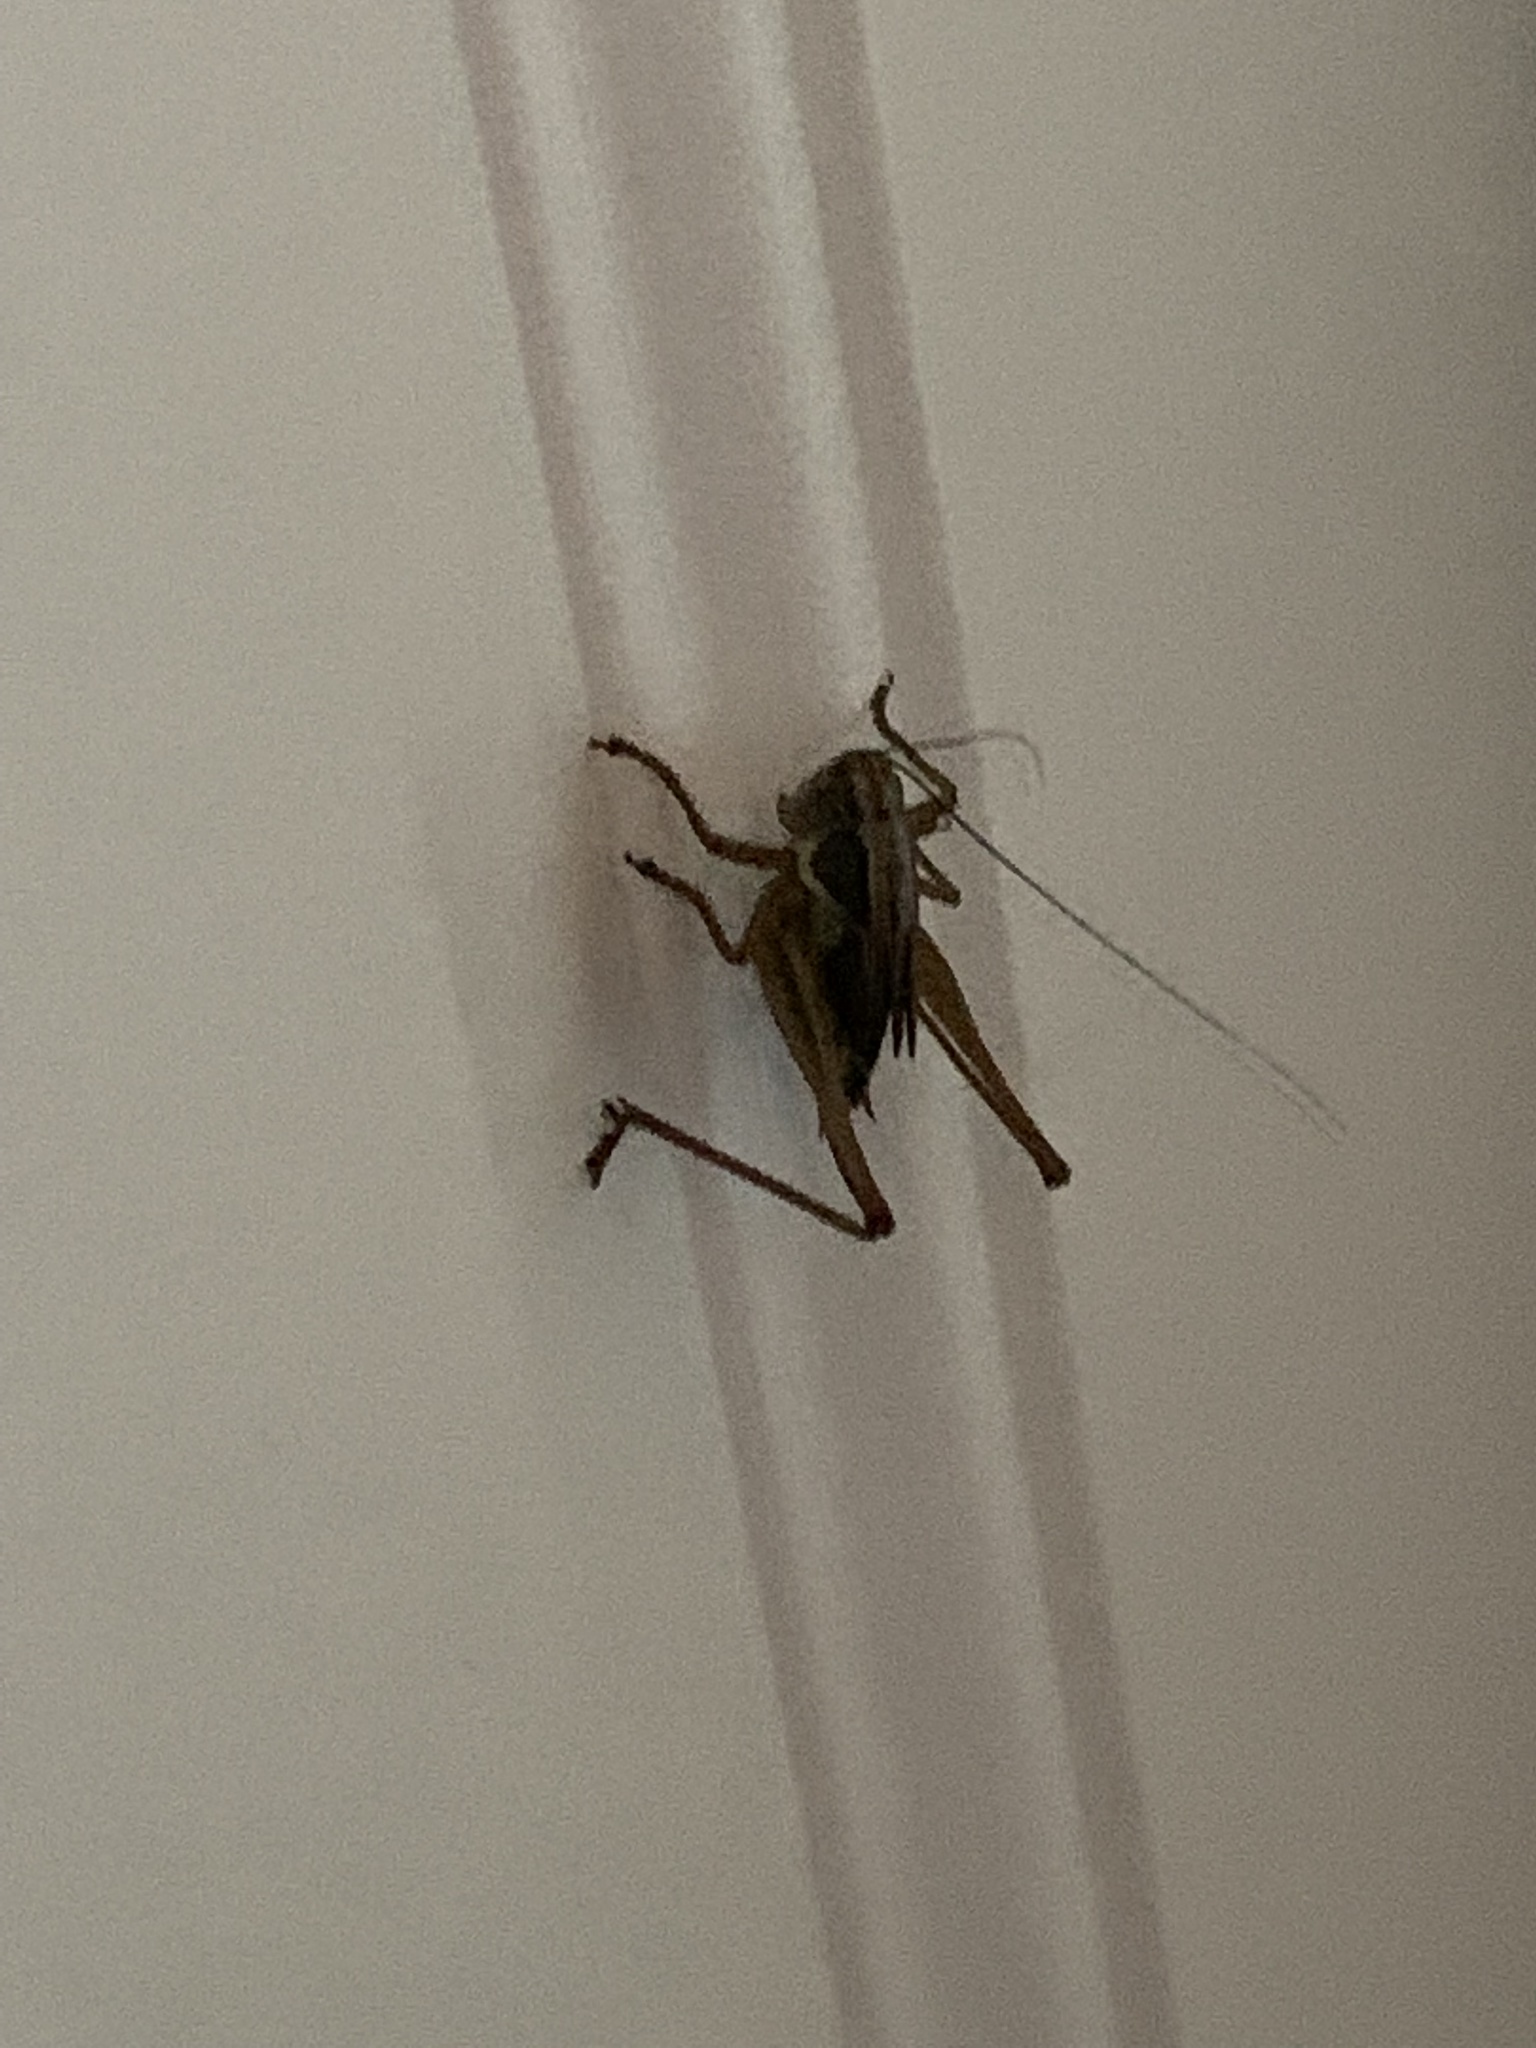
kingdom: Animalia
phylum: Arthropoda
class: Insecta
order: Orthoptera
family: Tettigoniidae
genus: Roeseliana
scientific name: Roeseliana roeselii
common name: Roesel's bush cricket
